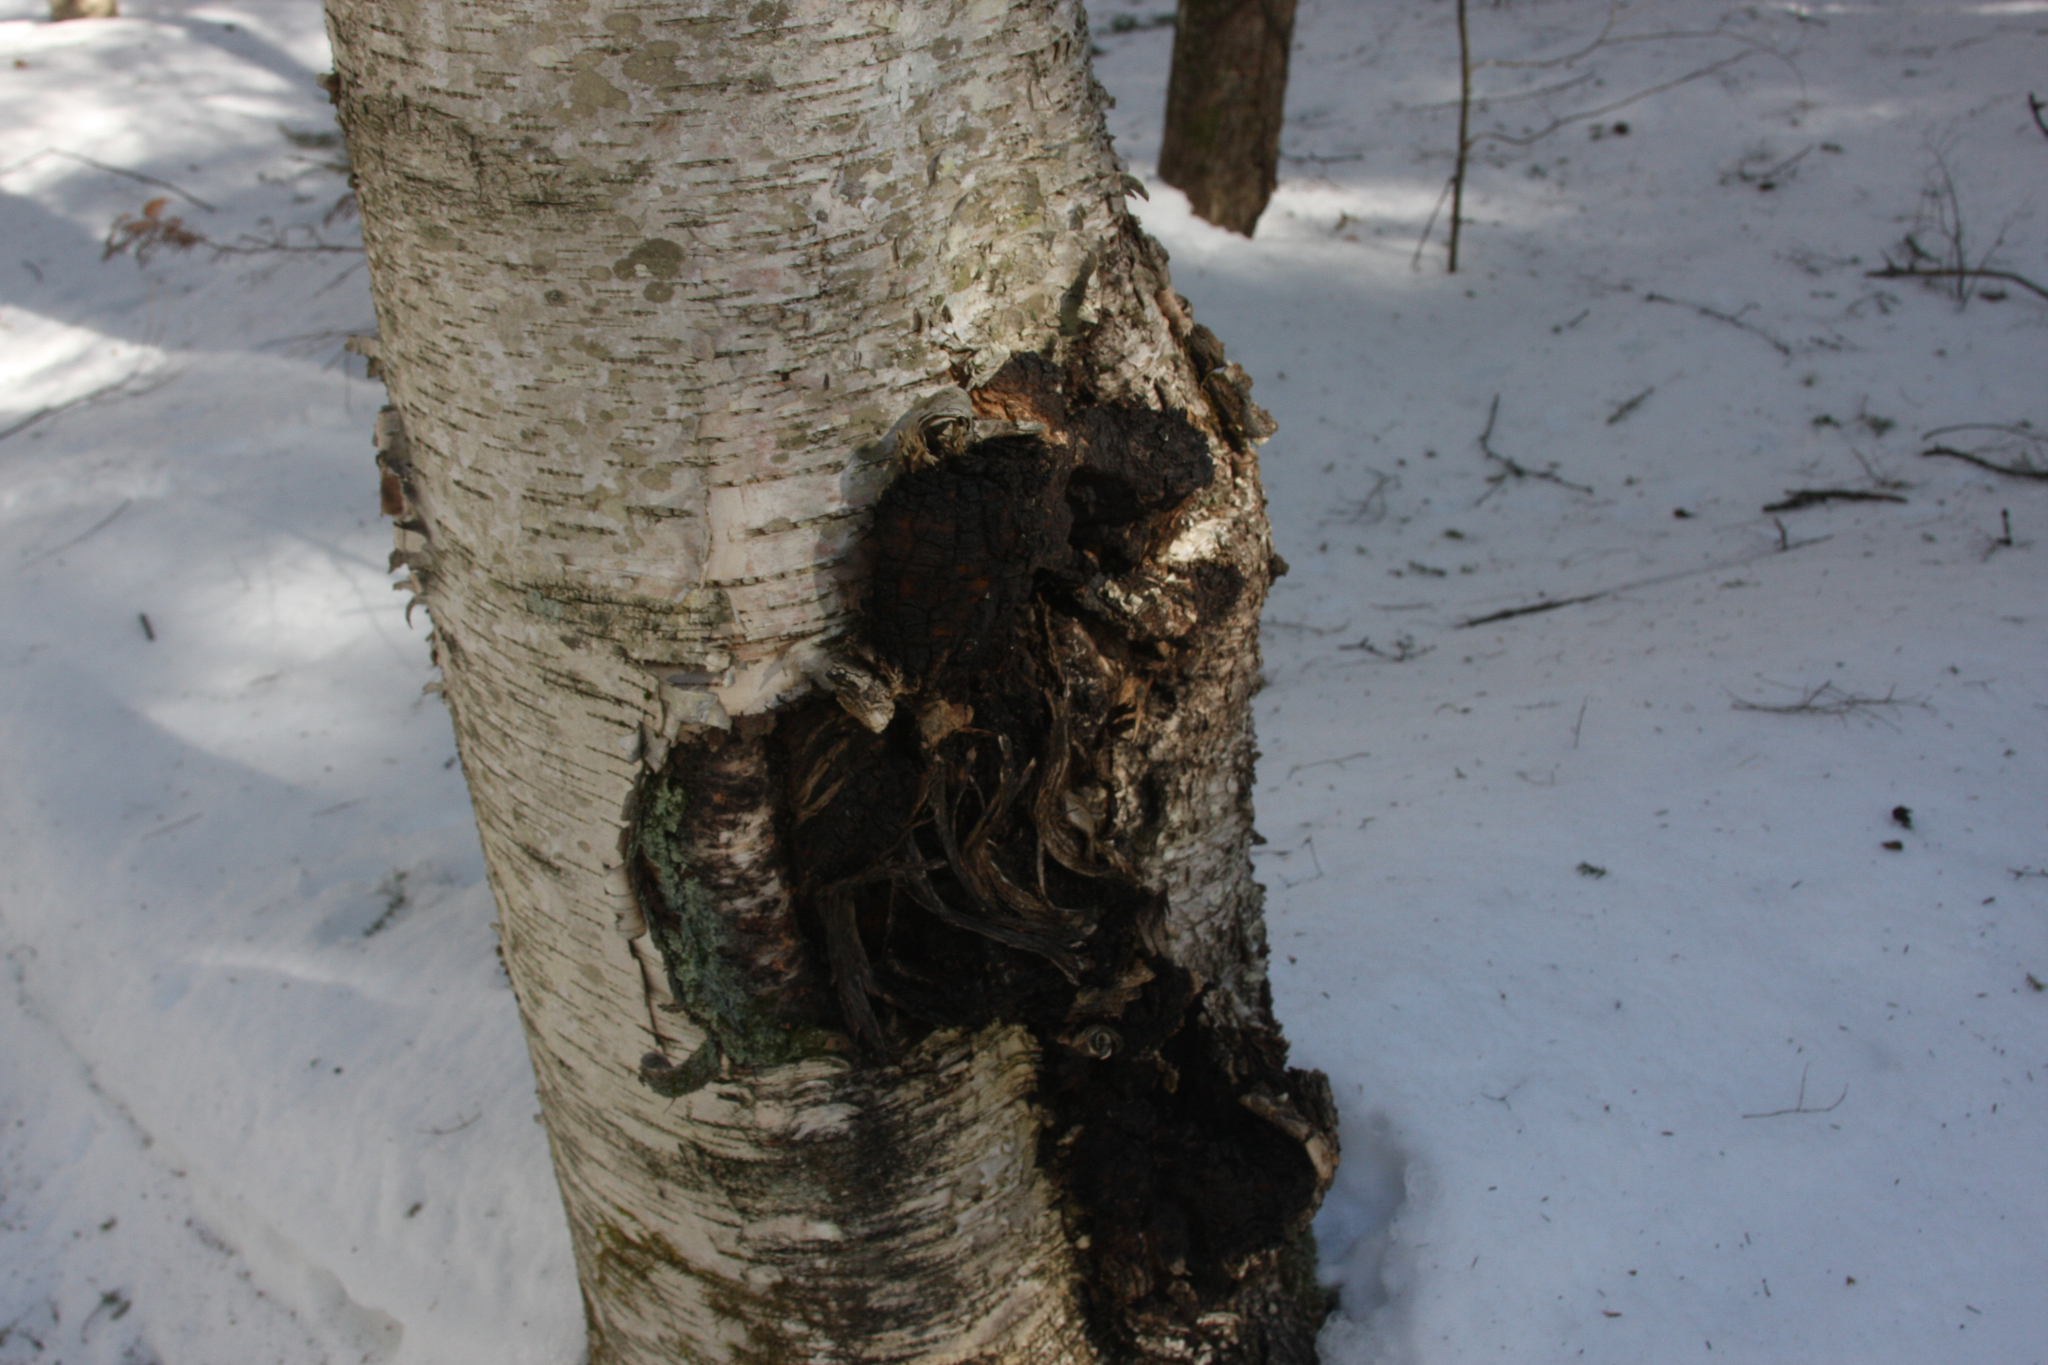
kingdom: Fungi
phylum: Basidiomycota
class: Agaricomycetes
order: Hymenochaetales
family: Hymenochaetaceae
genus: Inonotus
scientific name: Inonotus obliquus
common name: Chaga
